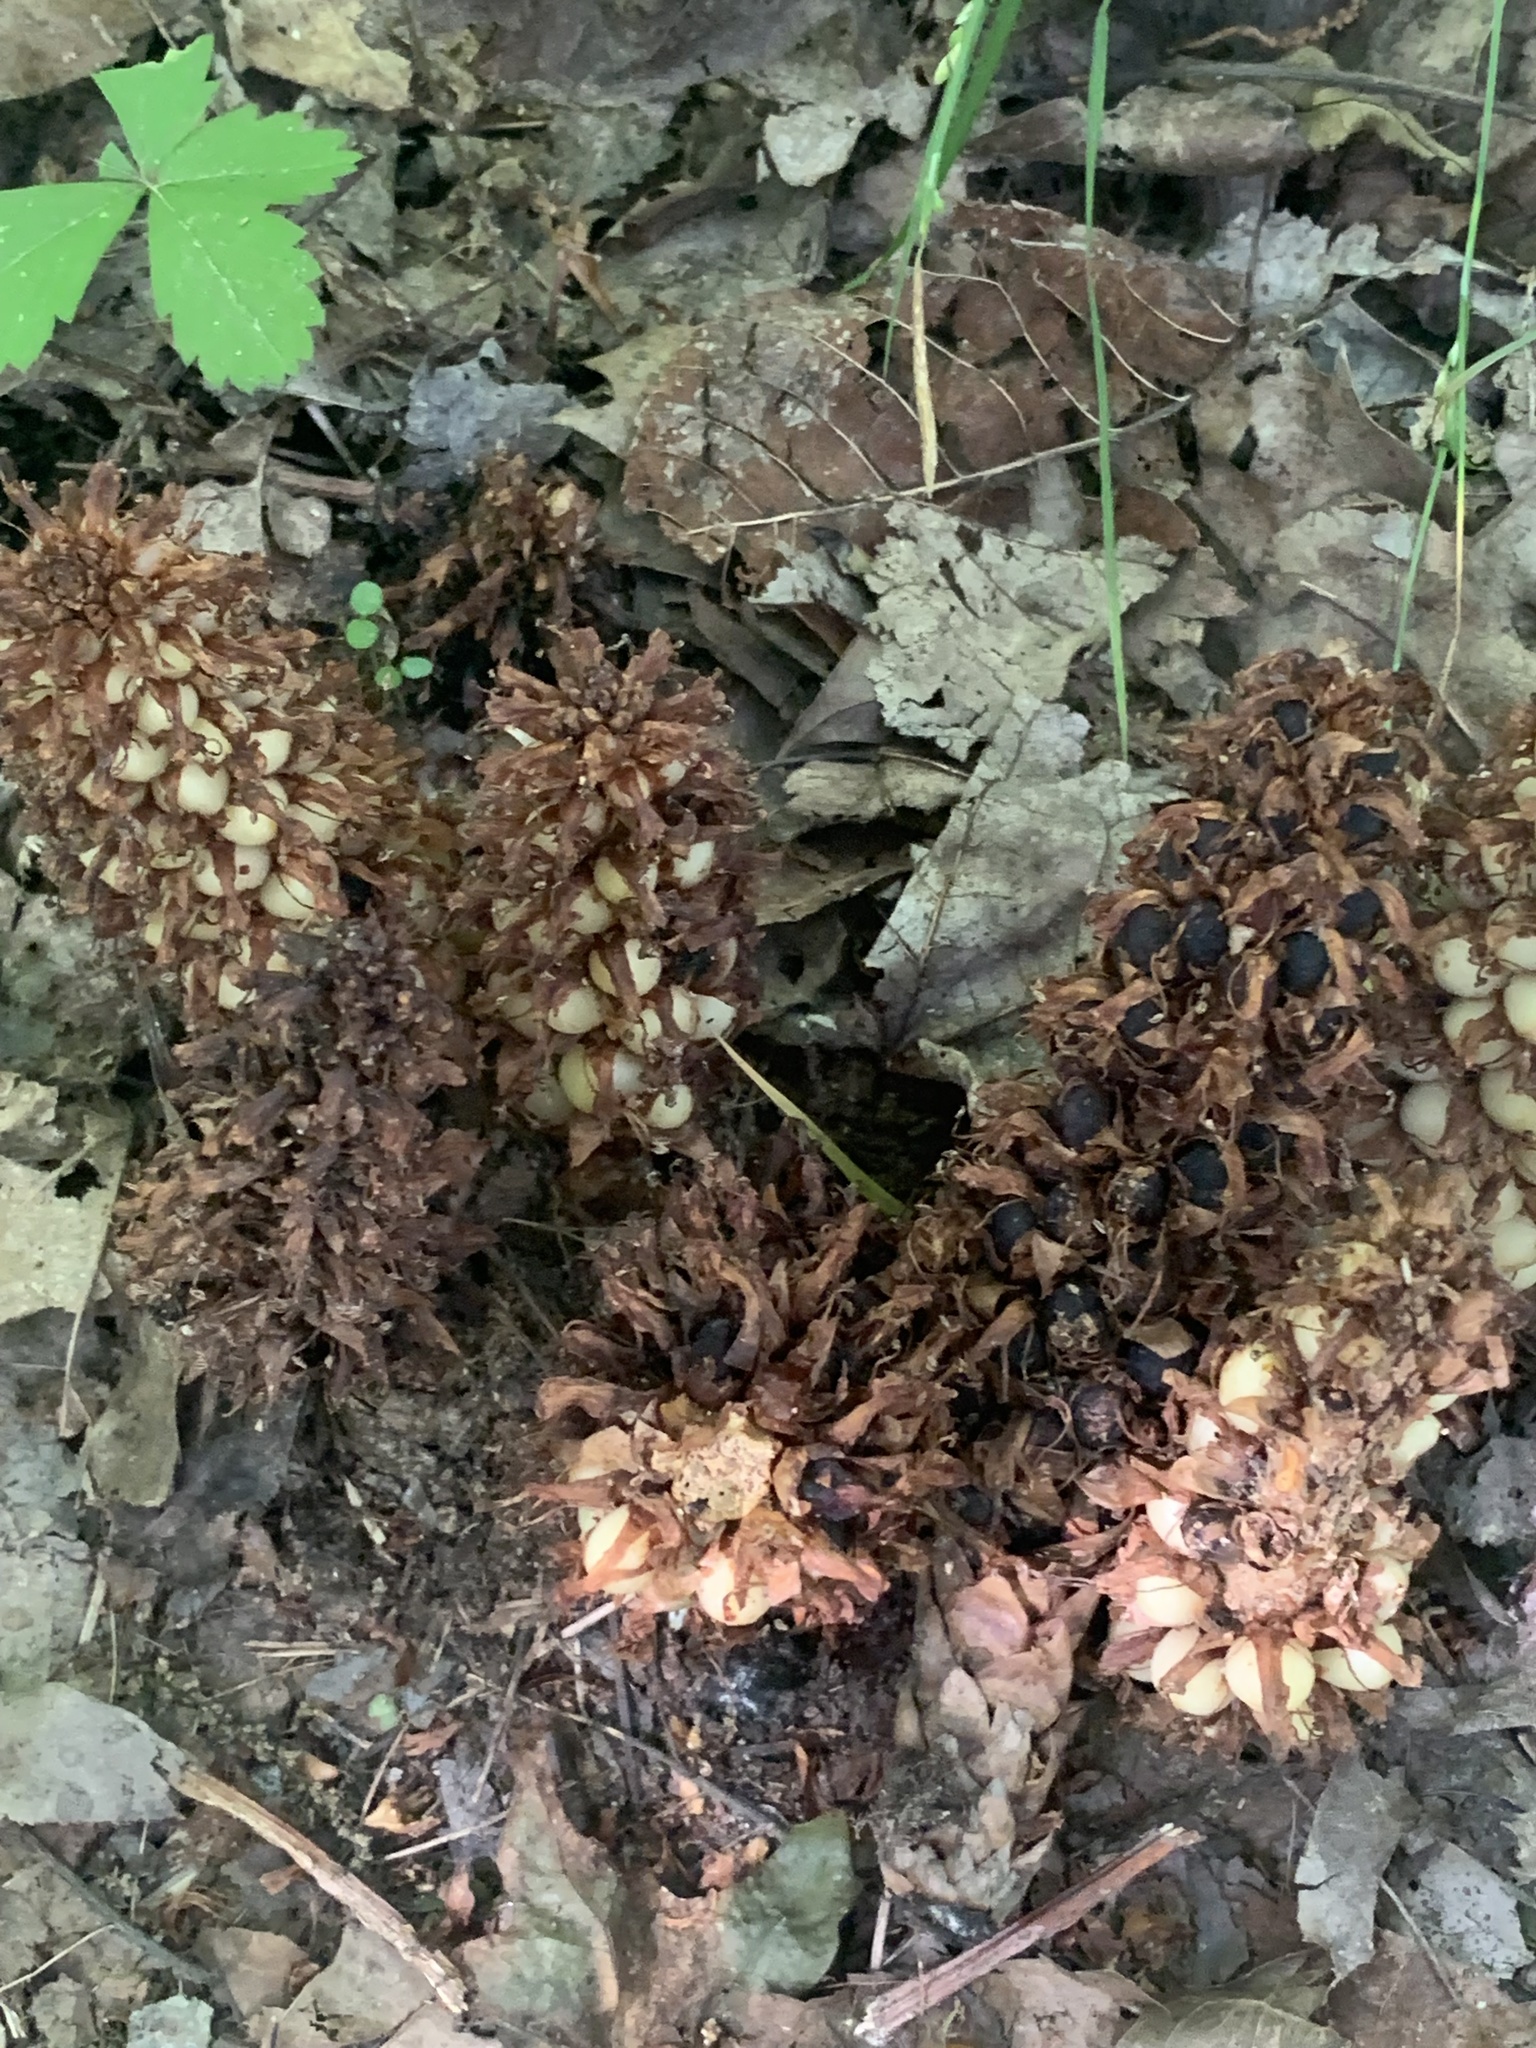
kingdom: Plantae
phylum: Tracheophyta
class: Magnoliopsida
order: Lamiales
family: Orobanchaceae
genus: Conopholis
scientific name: Conopholis americana
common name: American cancer-root
